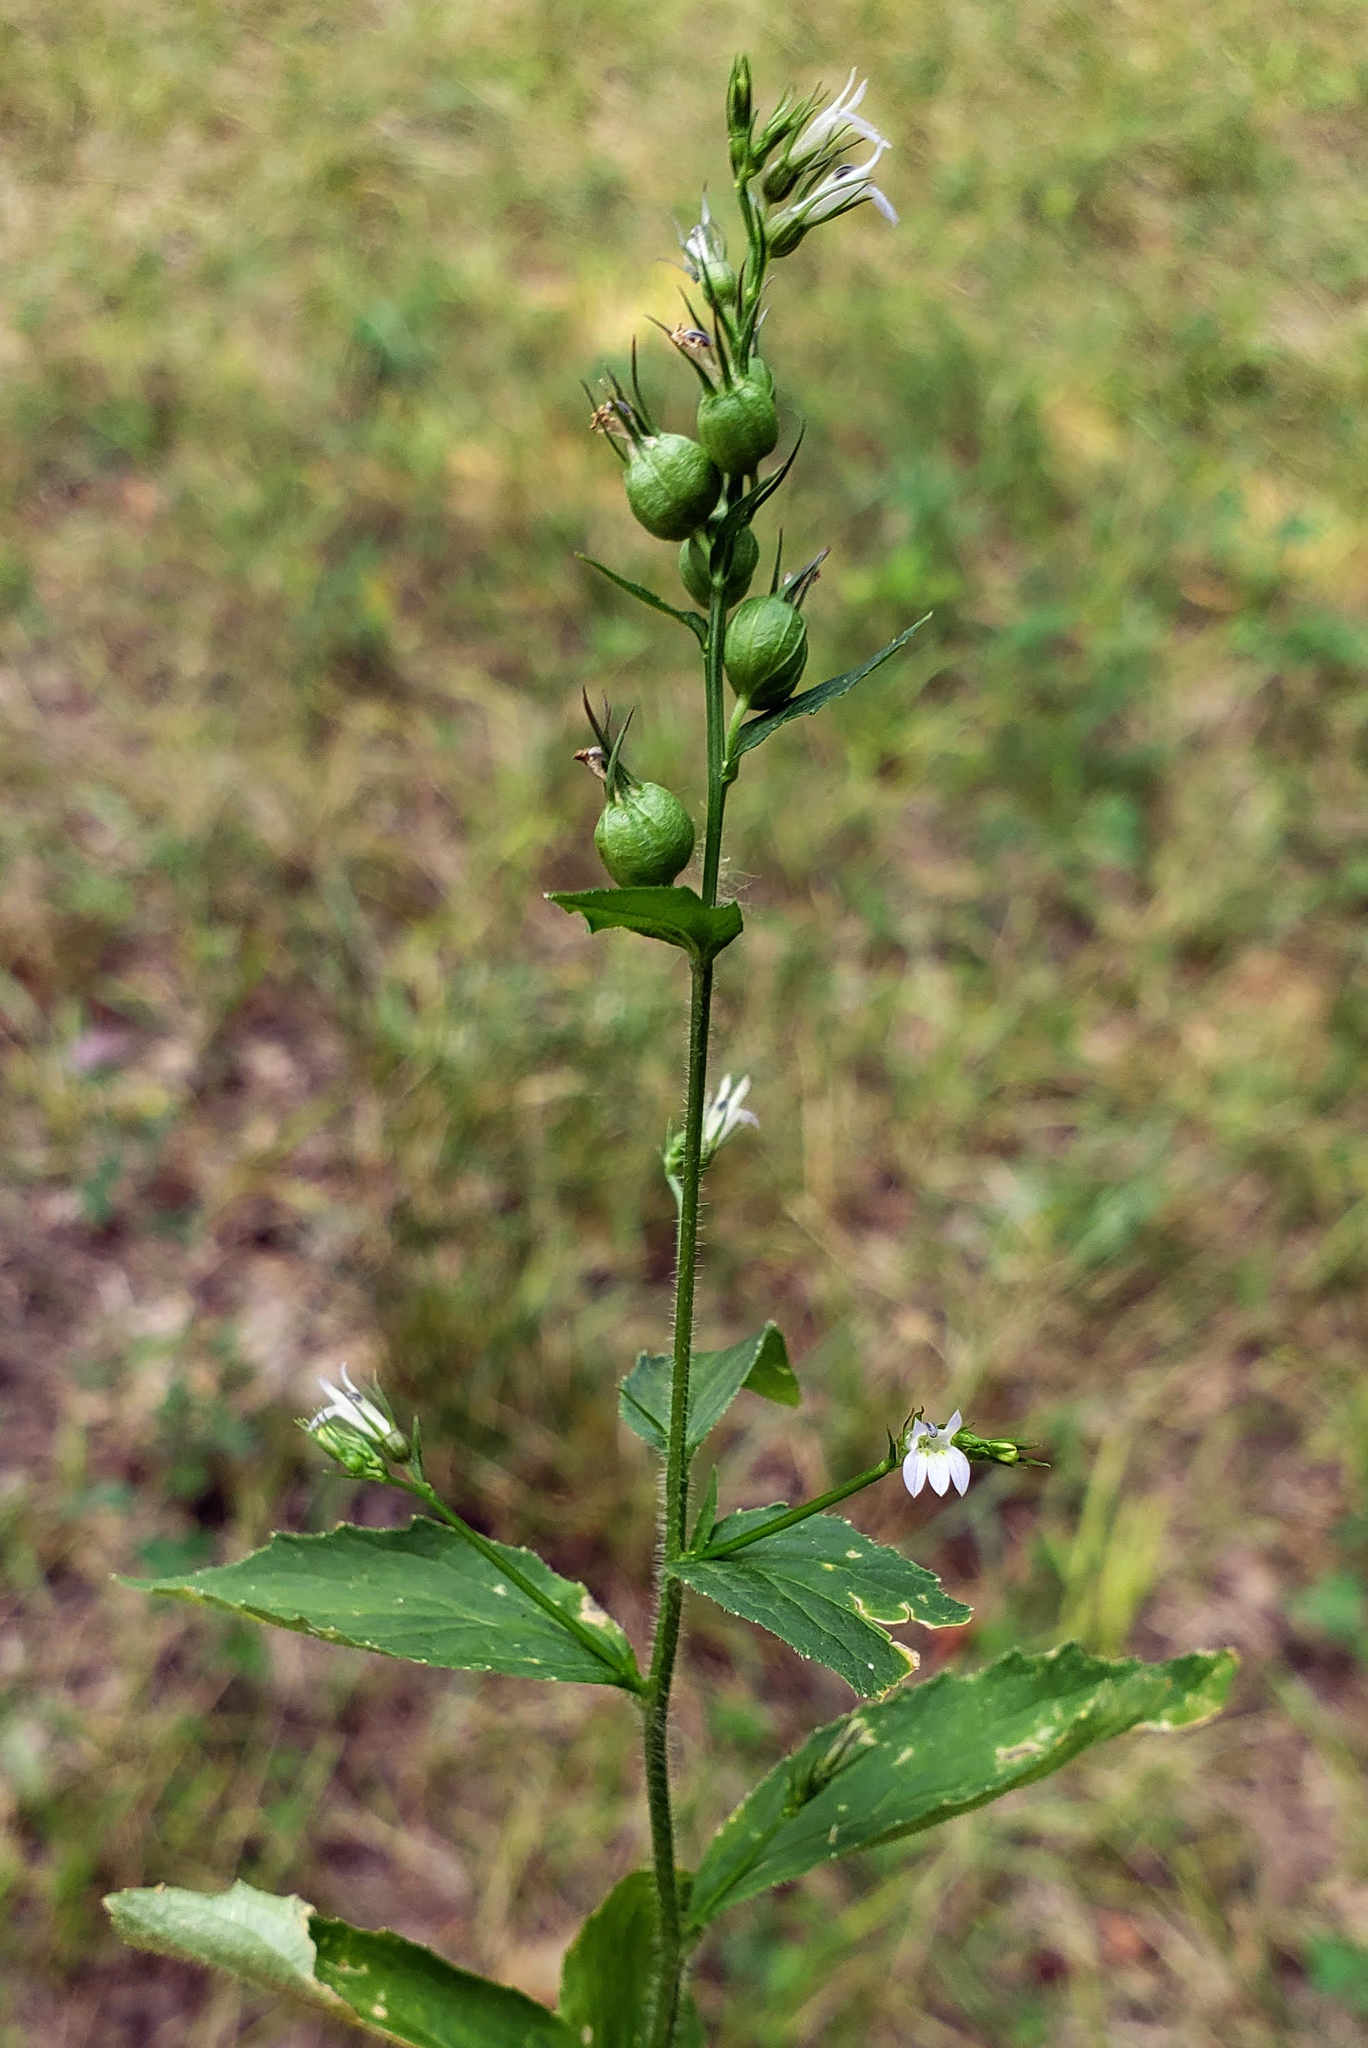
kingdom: Plantae
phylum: Tracheophyta
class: Magnoliopsida
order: Asterales
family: Campanulaceae
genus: Lobelia
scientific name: Lobelia inflata
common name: Indian tobacco
